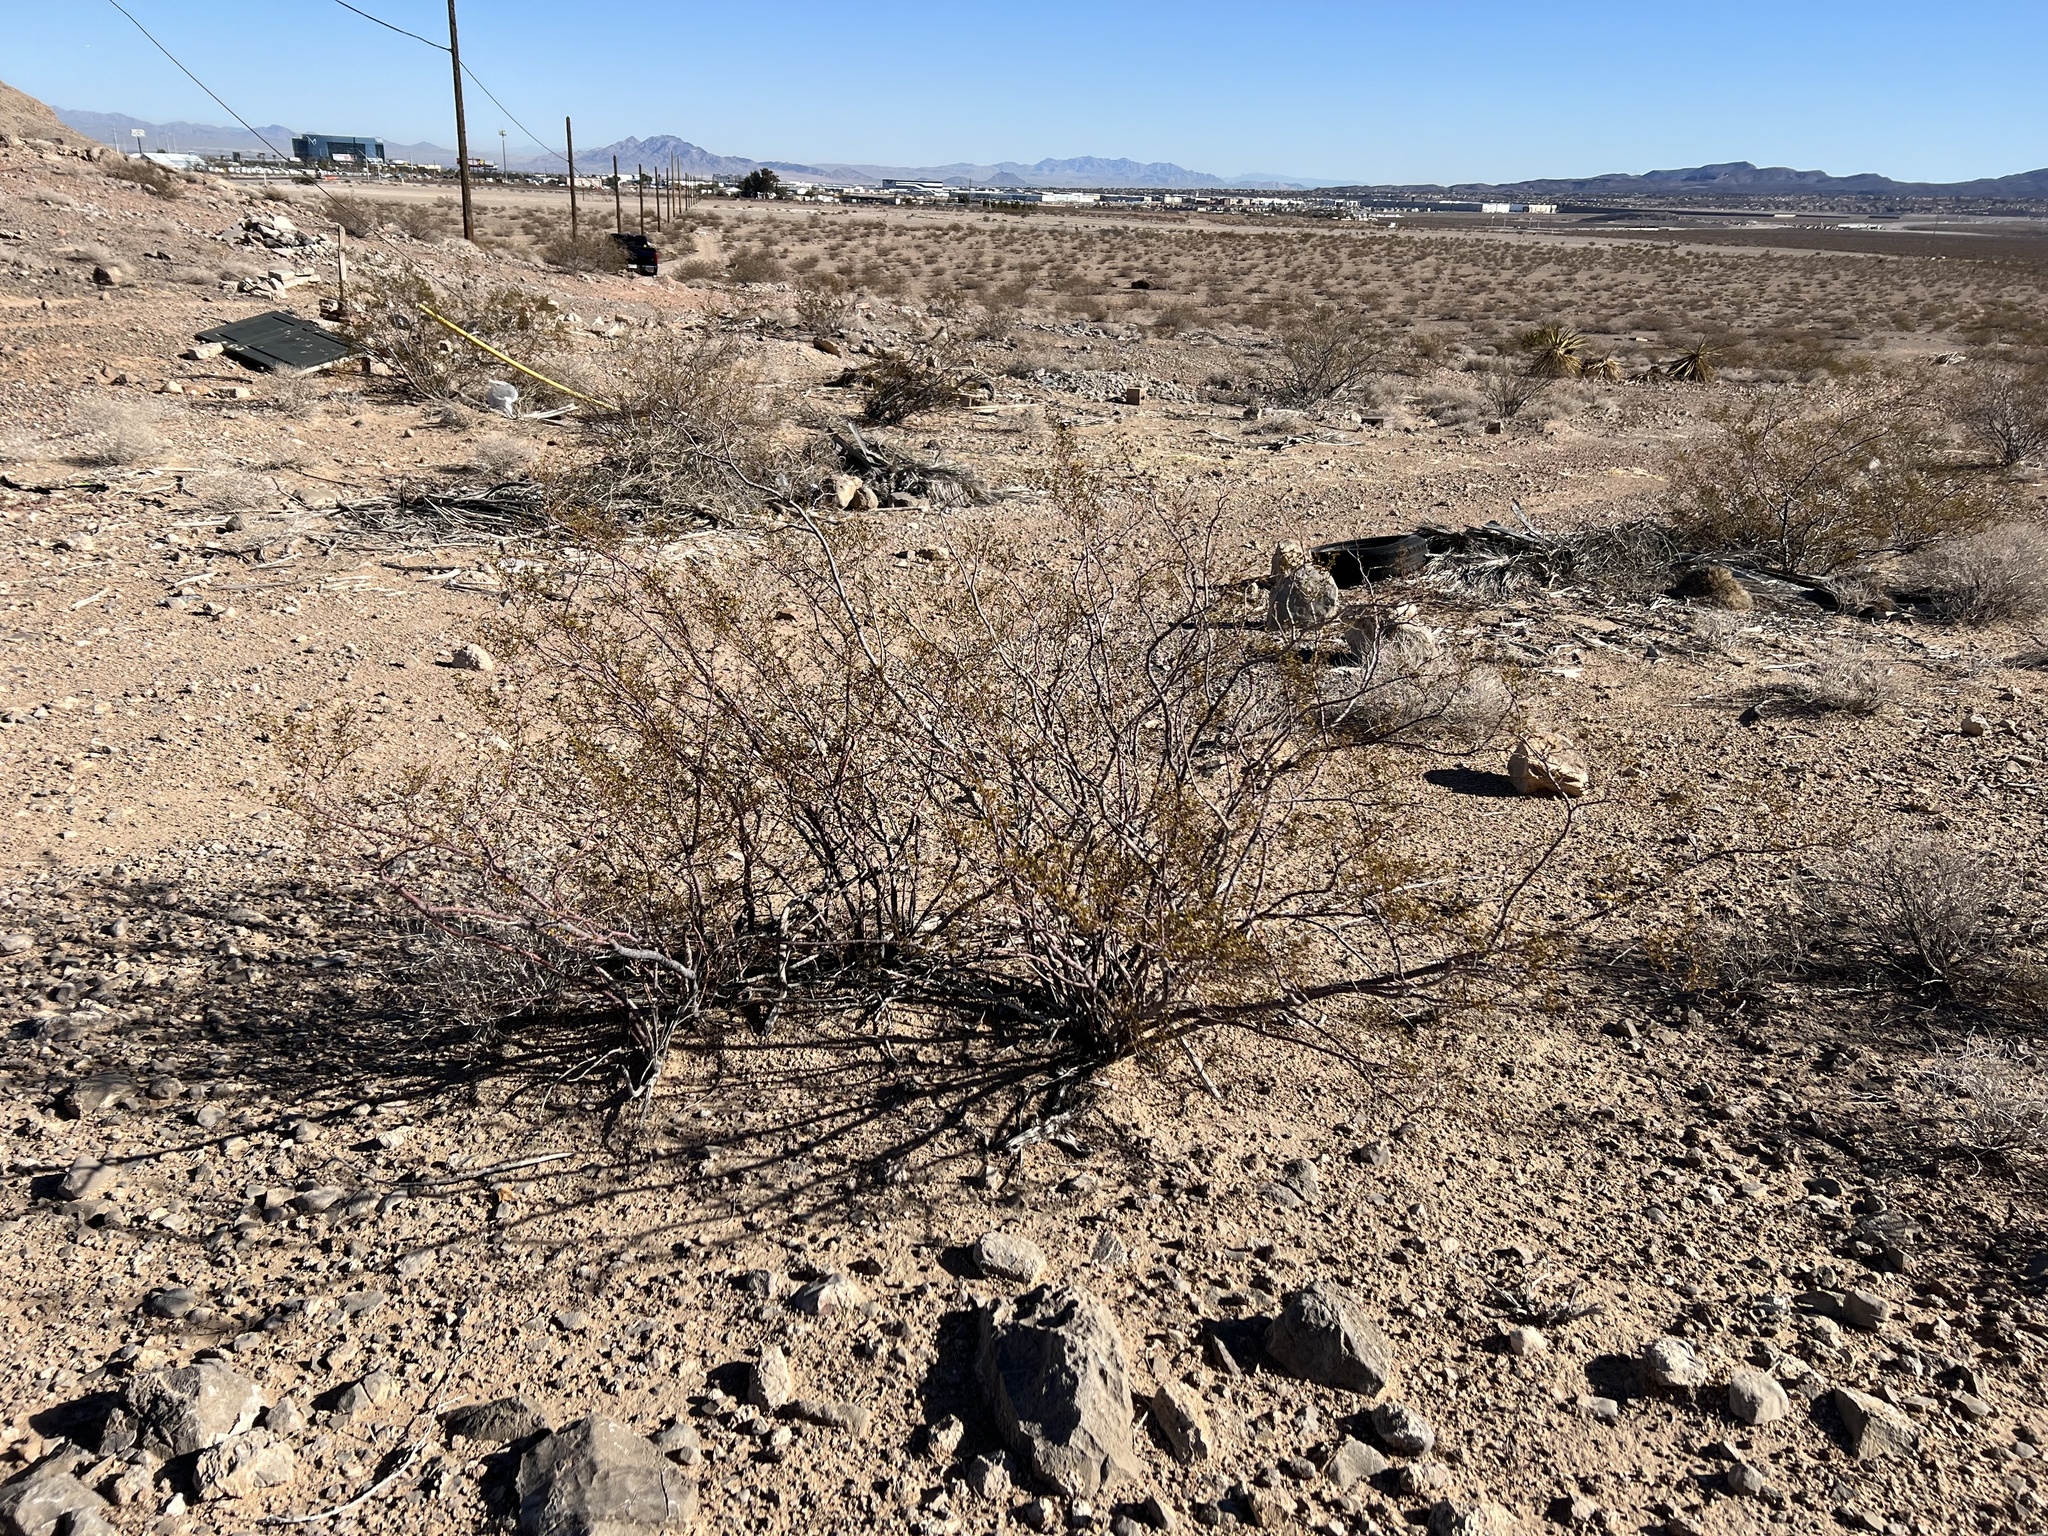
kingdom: Plantae
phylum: Tracheophyta
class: Magnoliopsida
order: Zygophyllales
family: Zygophyllaceae
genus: Larrea
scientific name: Larrea tridentata
